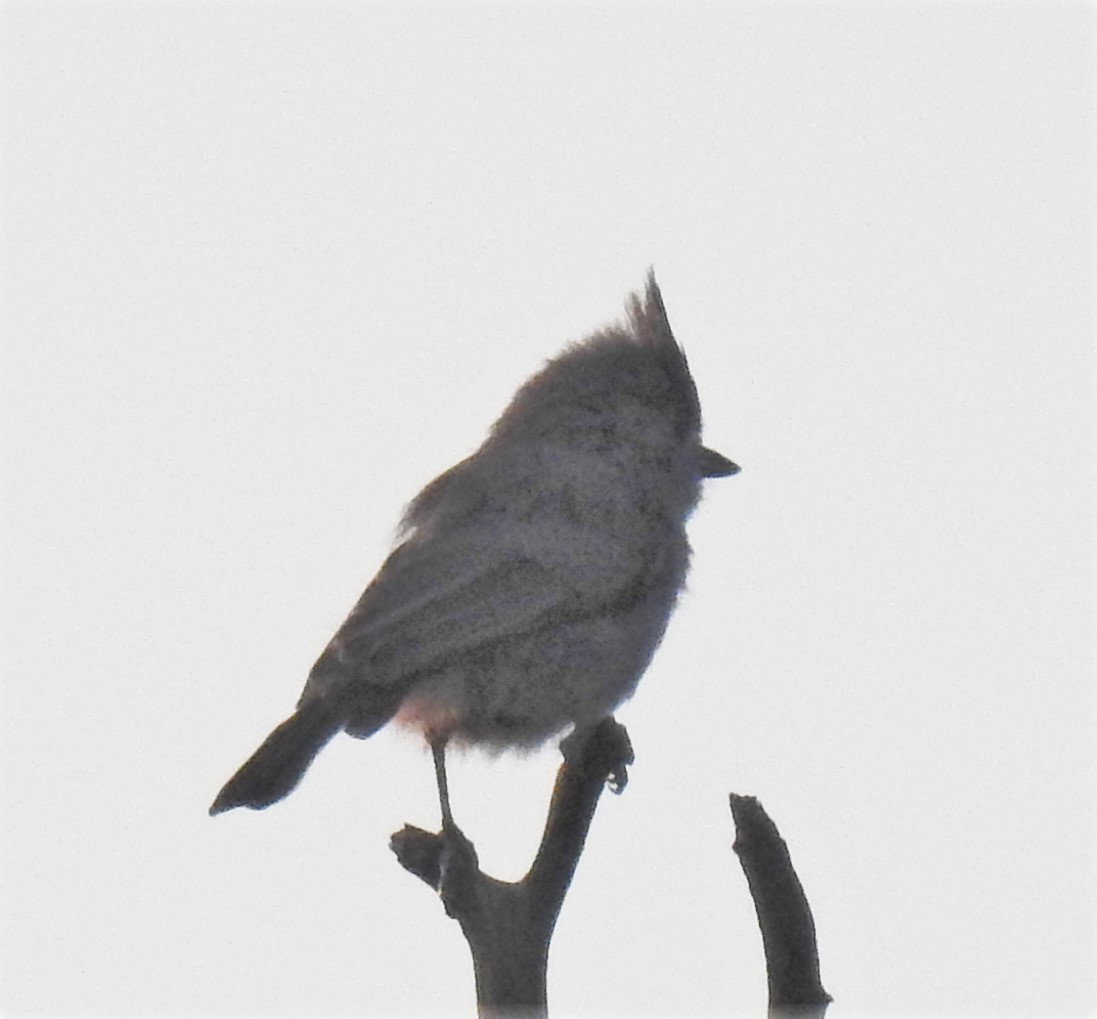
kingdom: Animalia
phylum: Chordata
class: Aves
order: Passeriformes
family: Paridae
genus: Baeolophus
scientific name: Baeolophus ridgwayi
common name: Juniper titmouse
